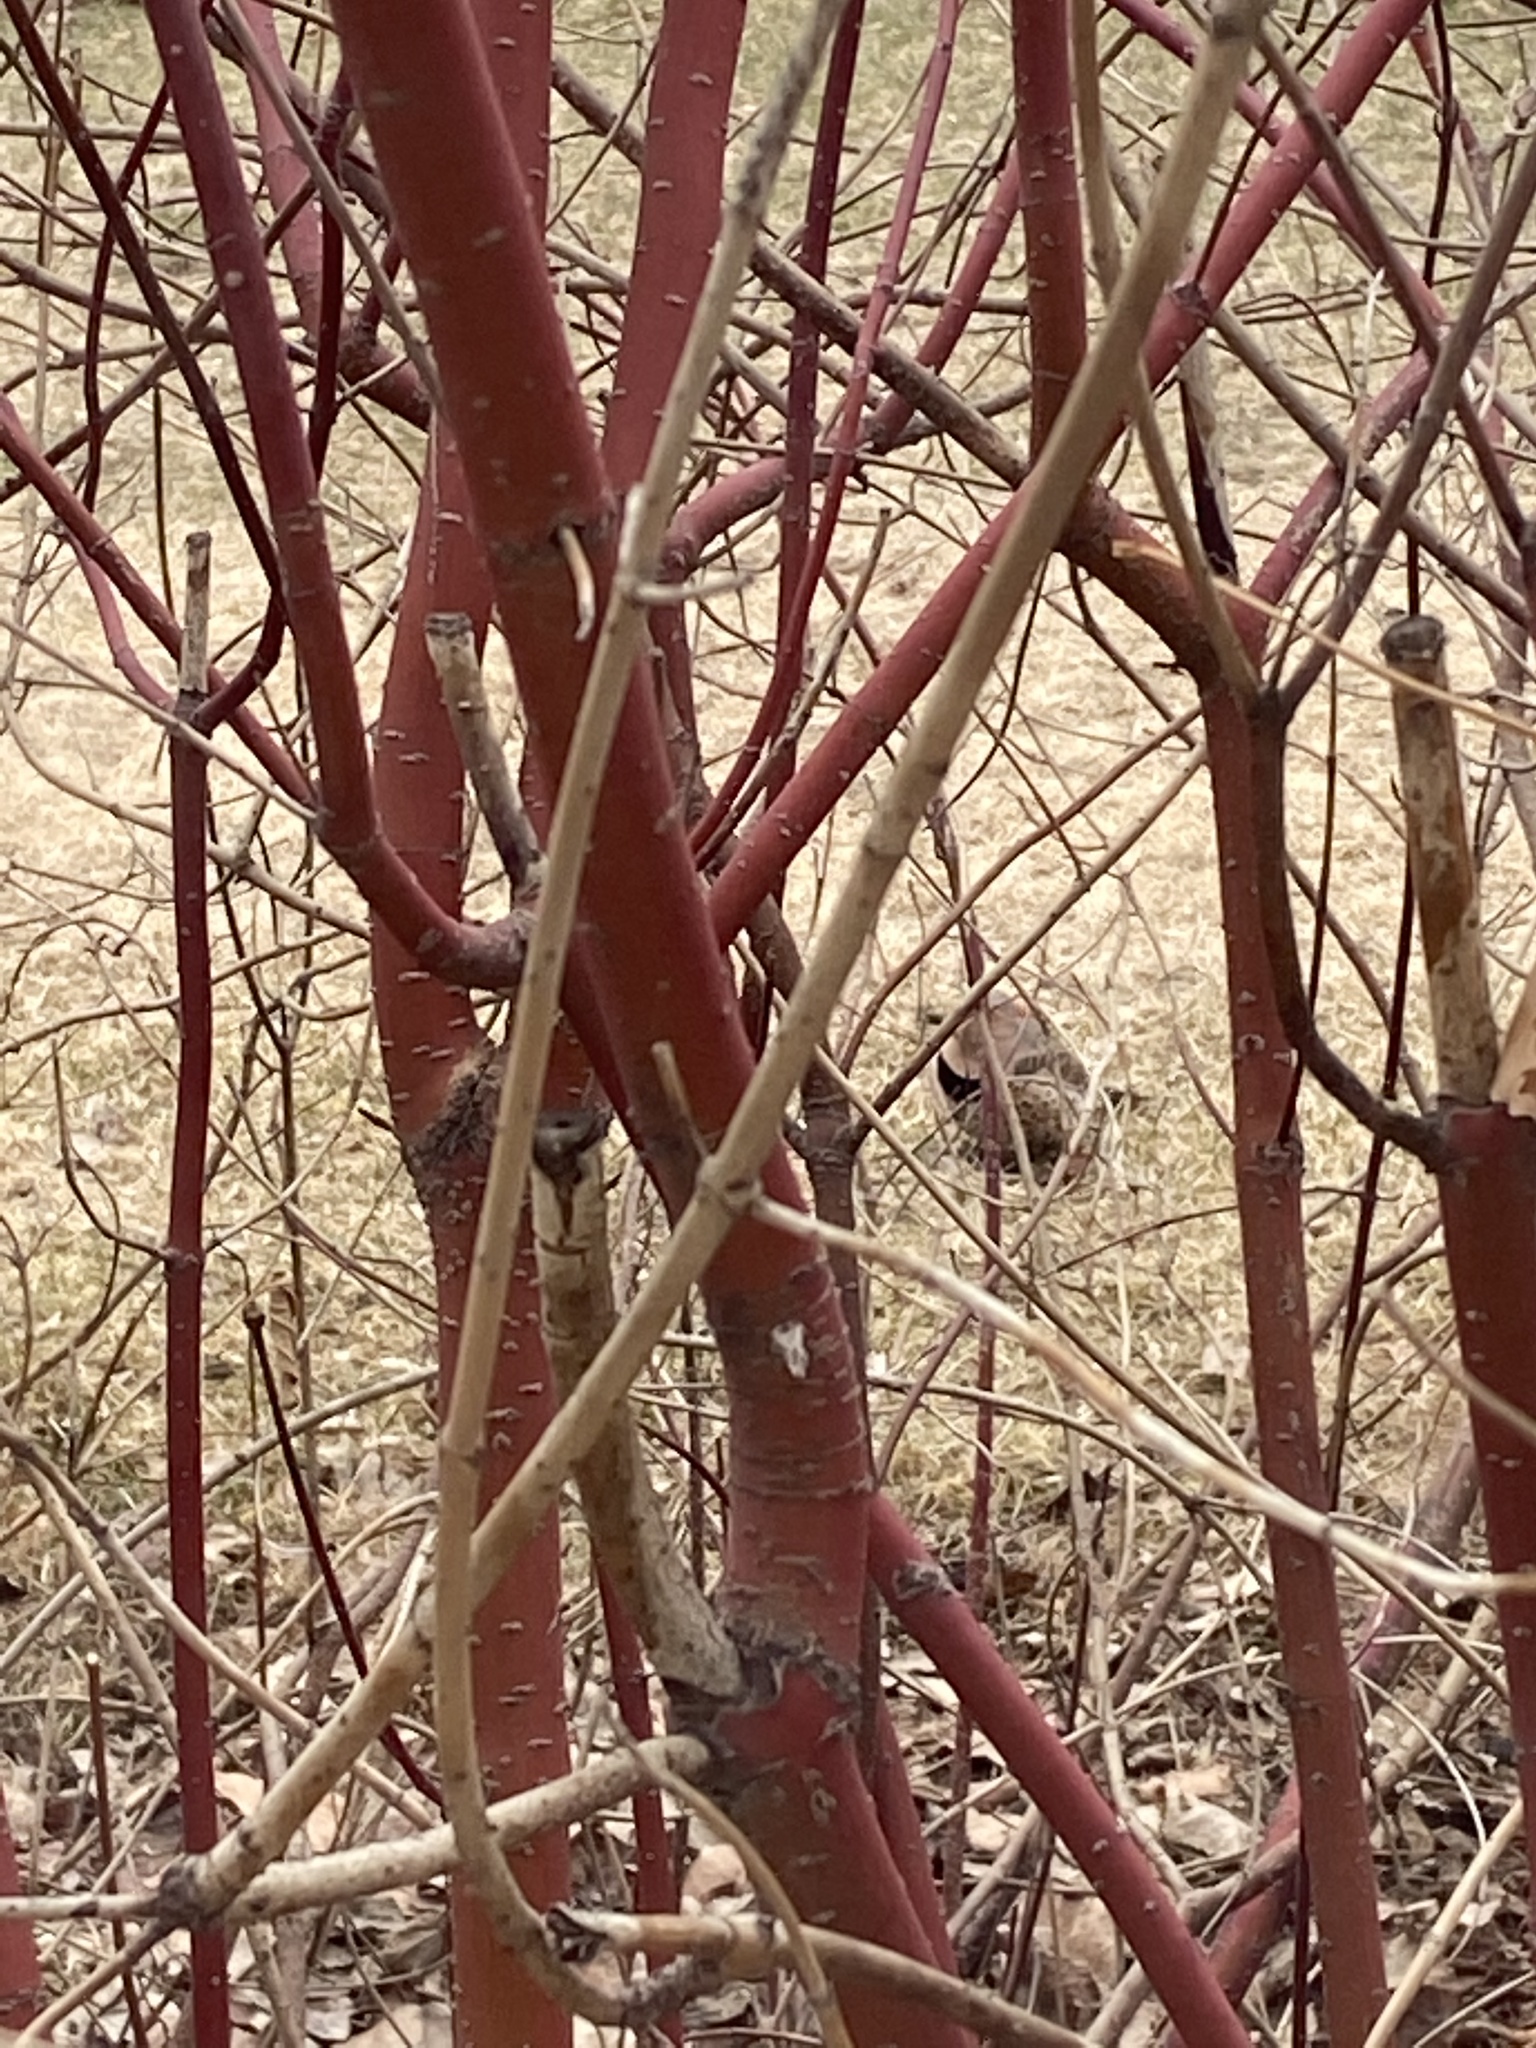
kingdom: Animalia
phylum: Chordata
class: Aves
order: Piciformes
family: Picidae
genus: Colaptes
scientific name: Colaptes auratus
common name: Northern flicker
